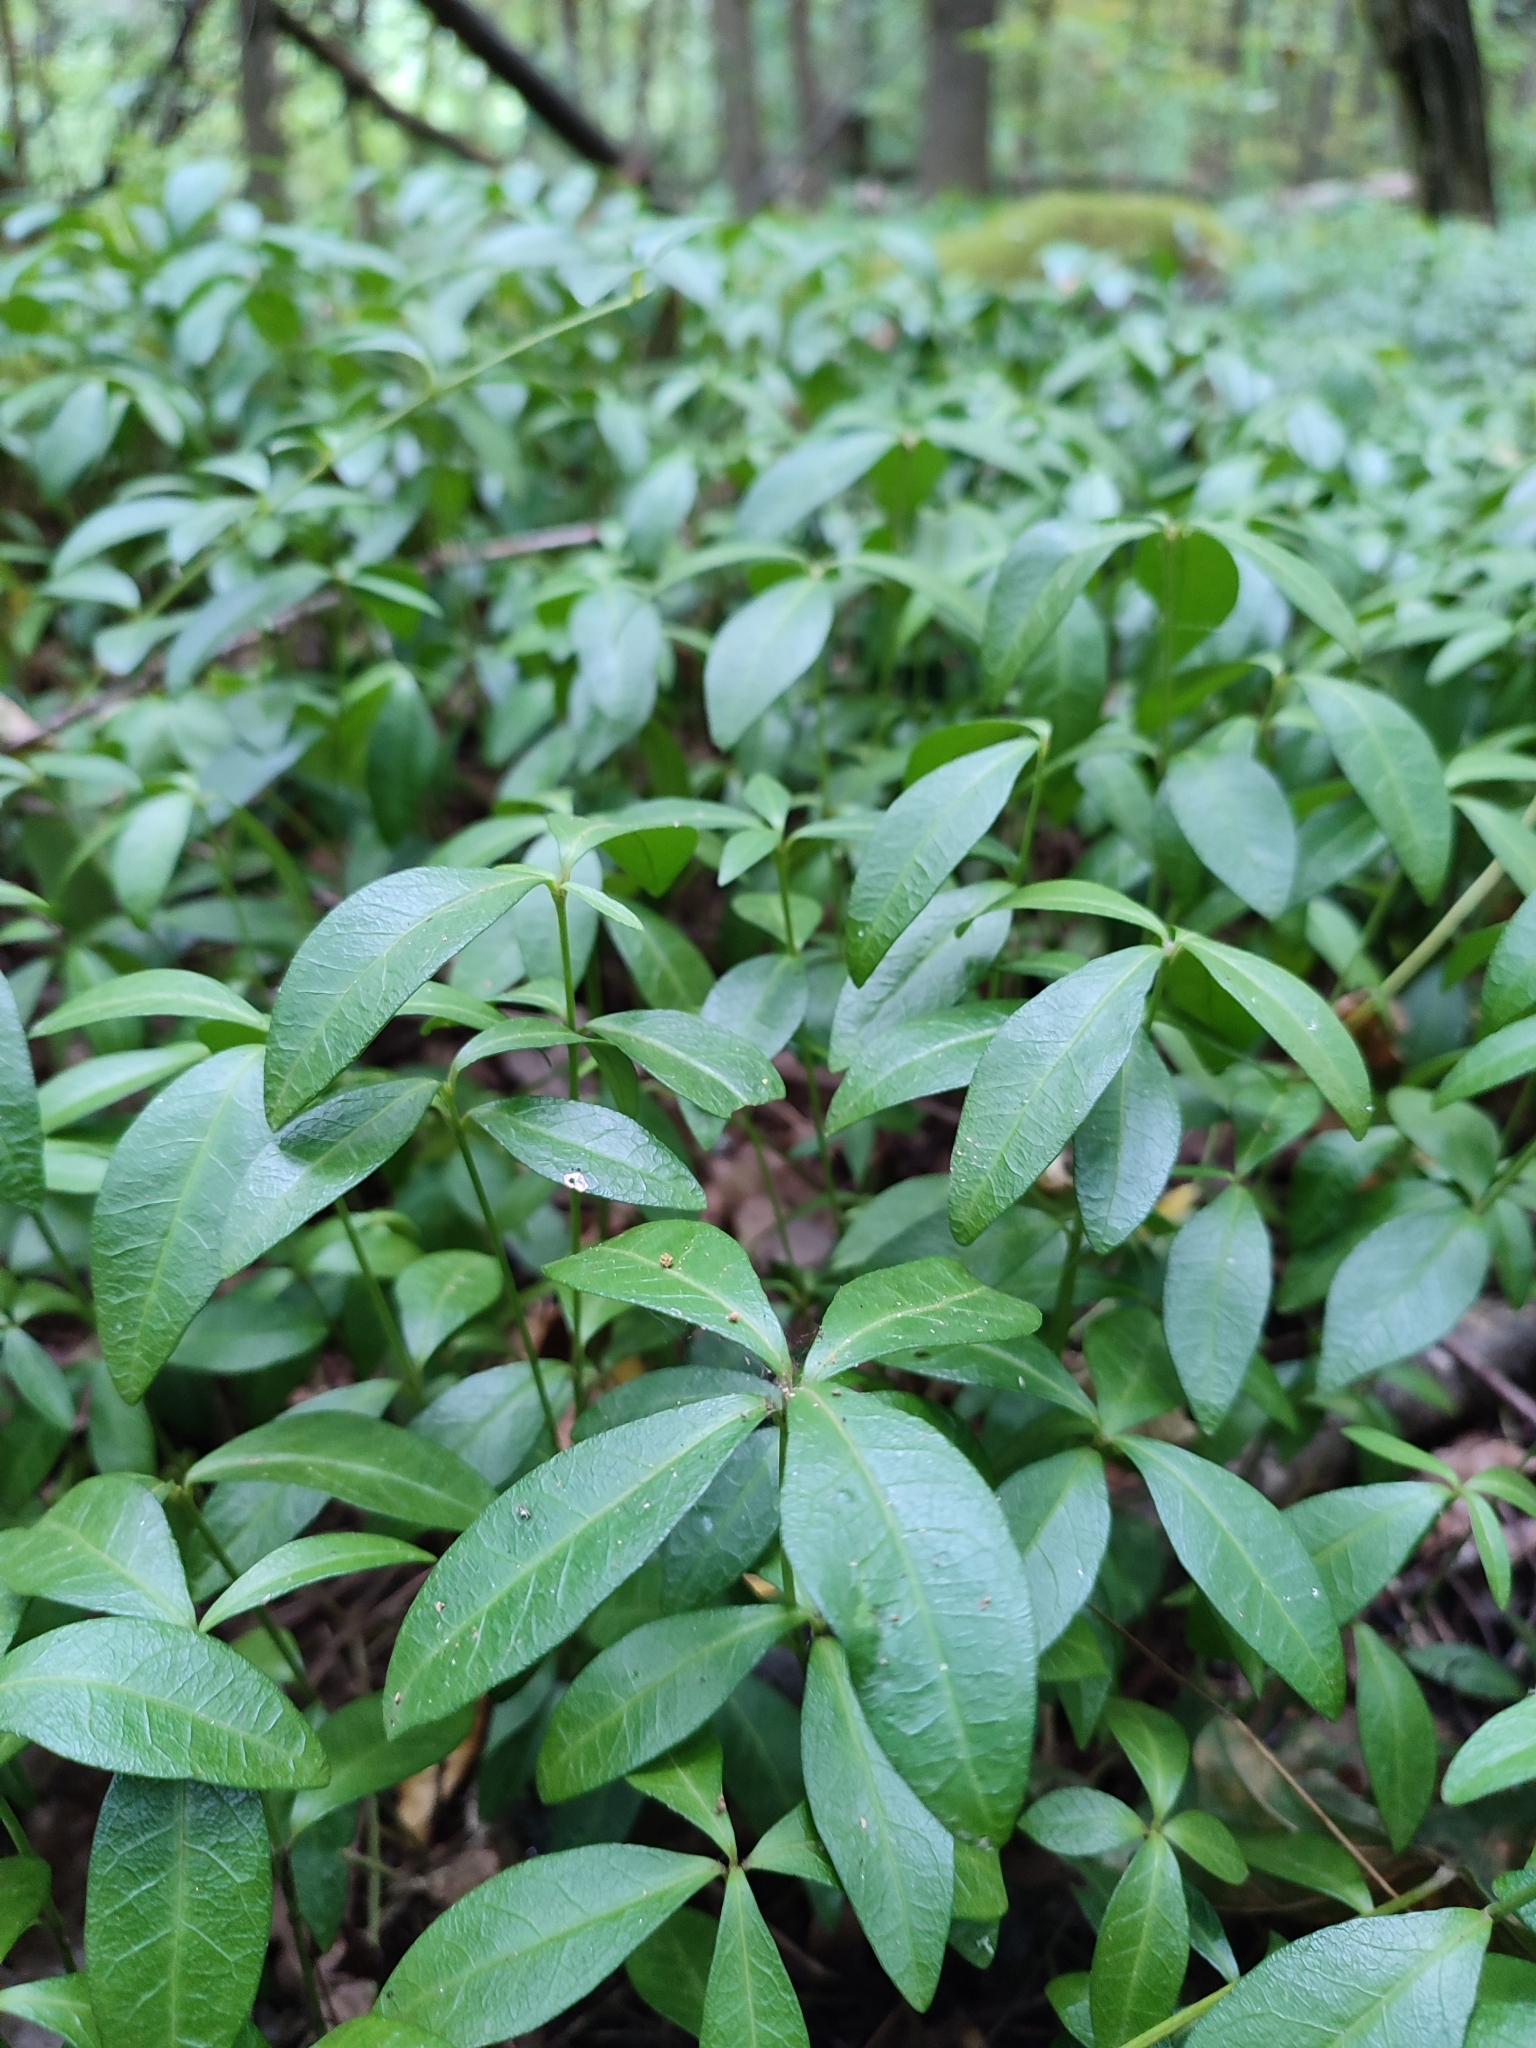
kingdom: Plantae
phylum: Tracheophyta
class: Magnoliopsida
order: Gentianales
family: Apocynaceae
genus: Vinca
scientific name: Vinca minor
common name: Lesser periwinkle
